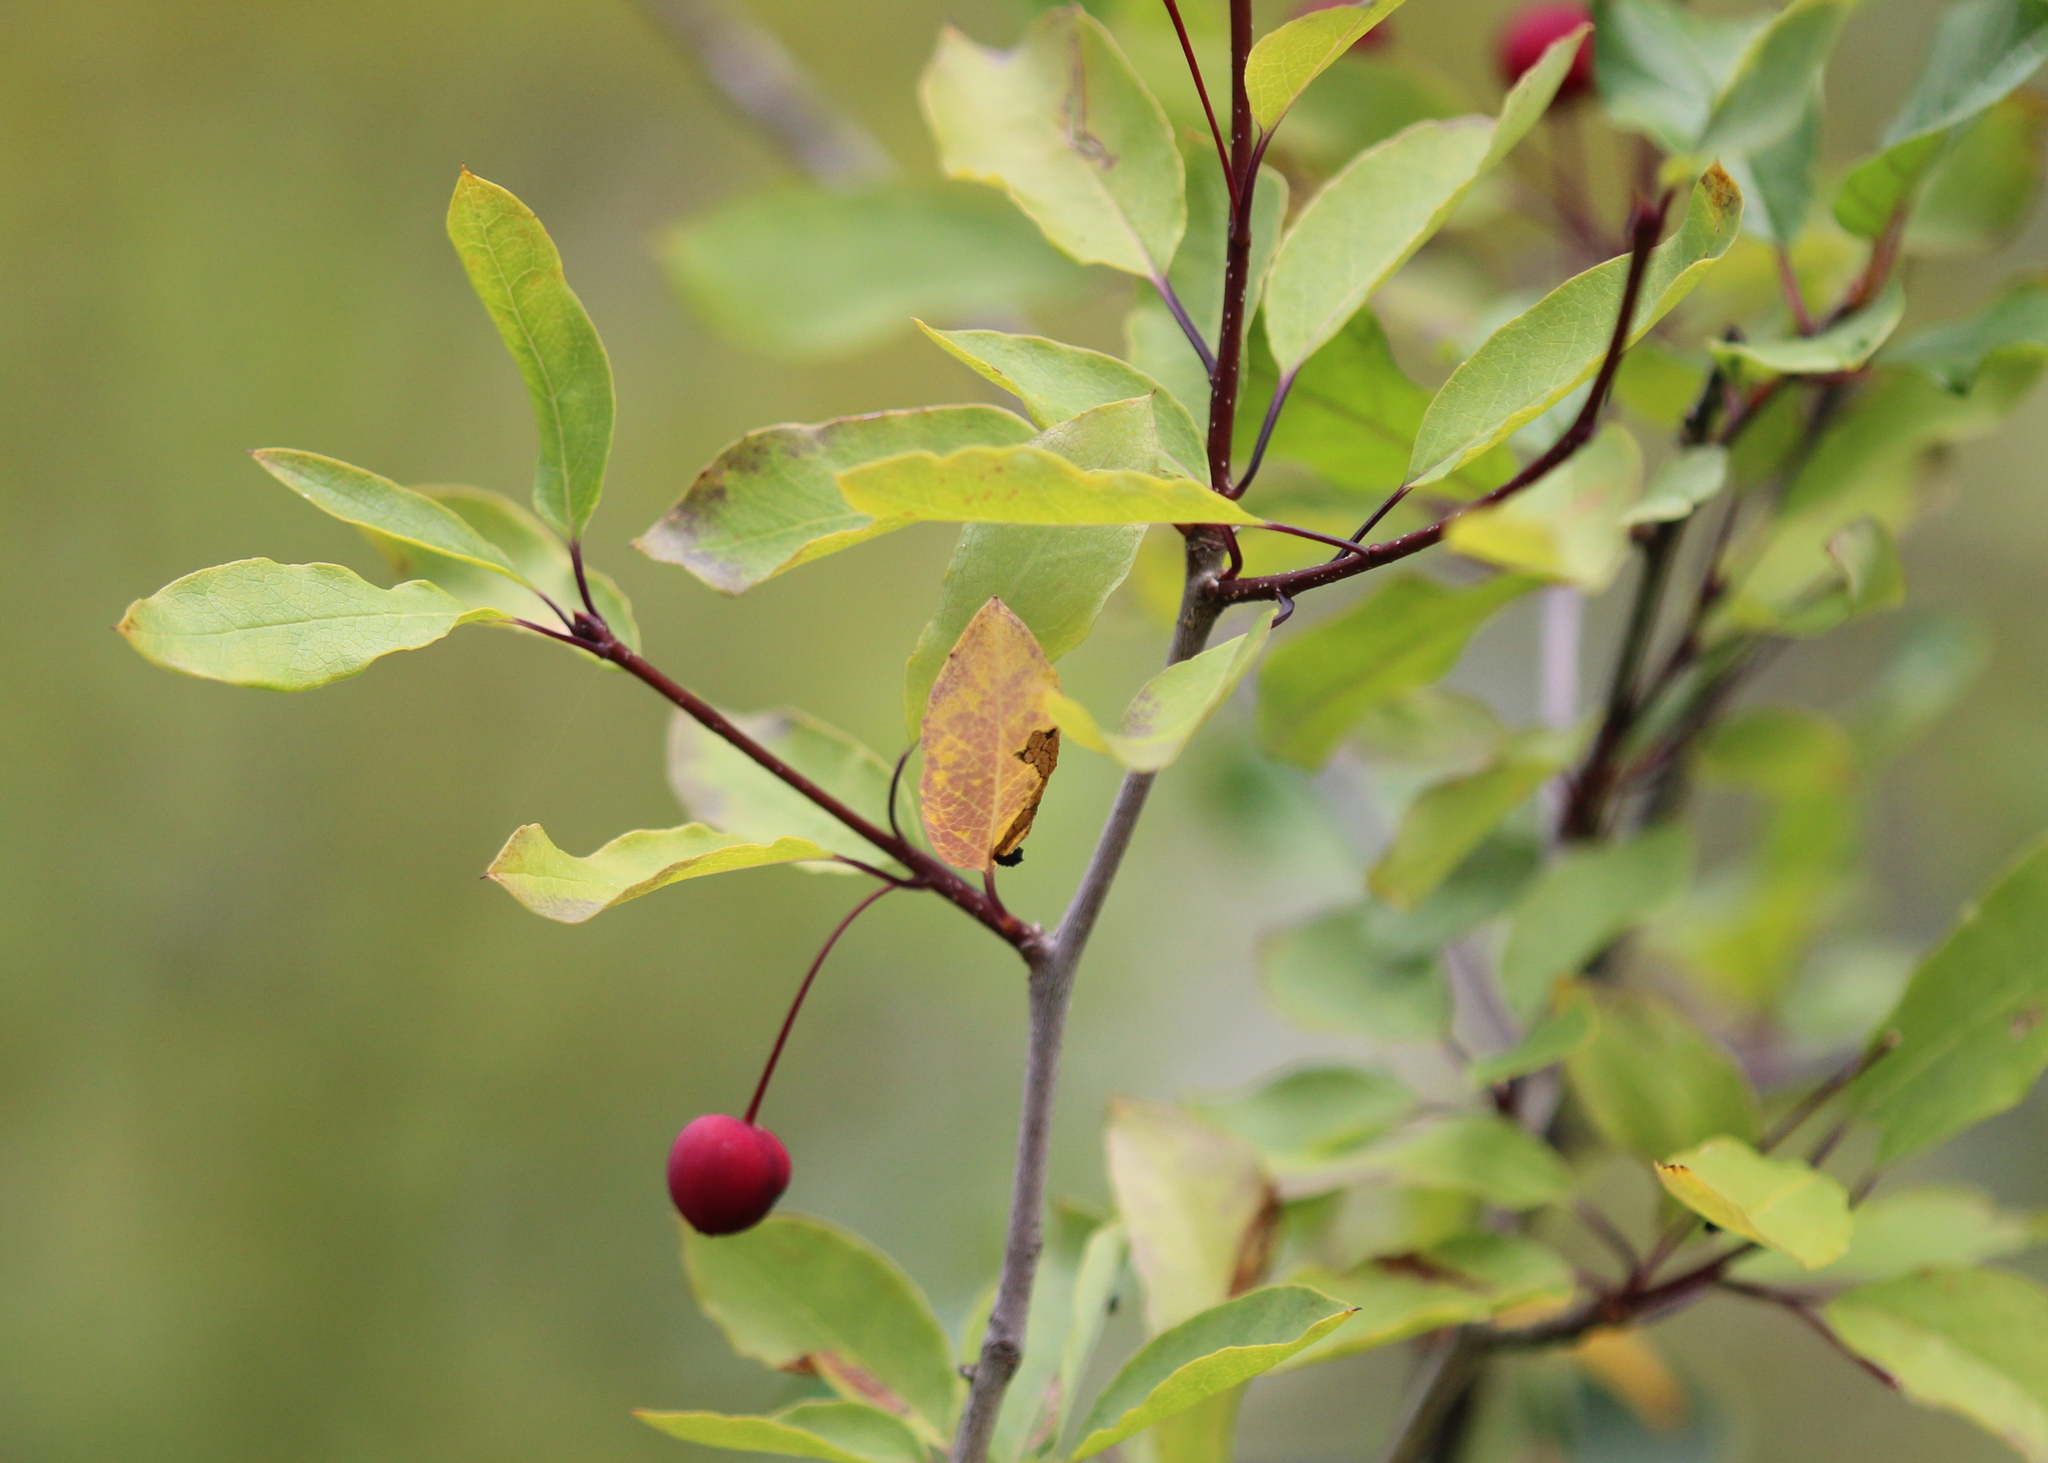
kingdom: Plantae
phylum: Tracheophyta
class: Magnoliopsida
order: Aquifoliales
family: Aquifoliaceae
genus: Ilex
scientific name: Ilex mucronata
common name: Catberry
